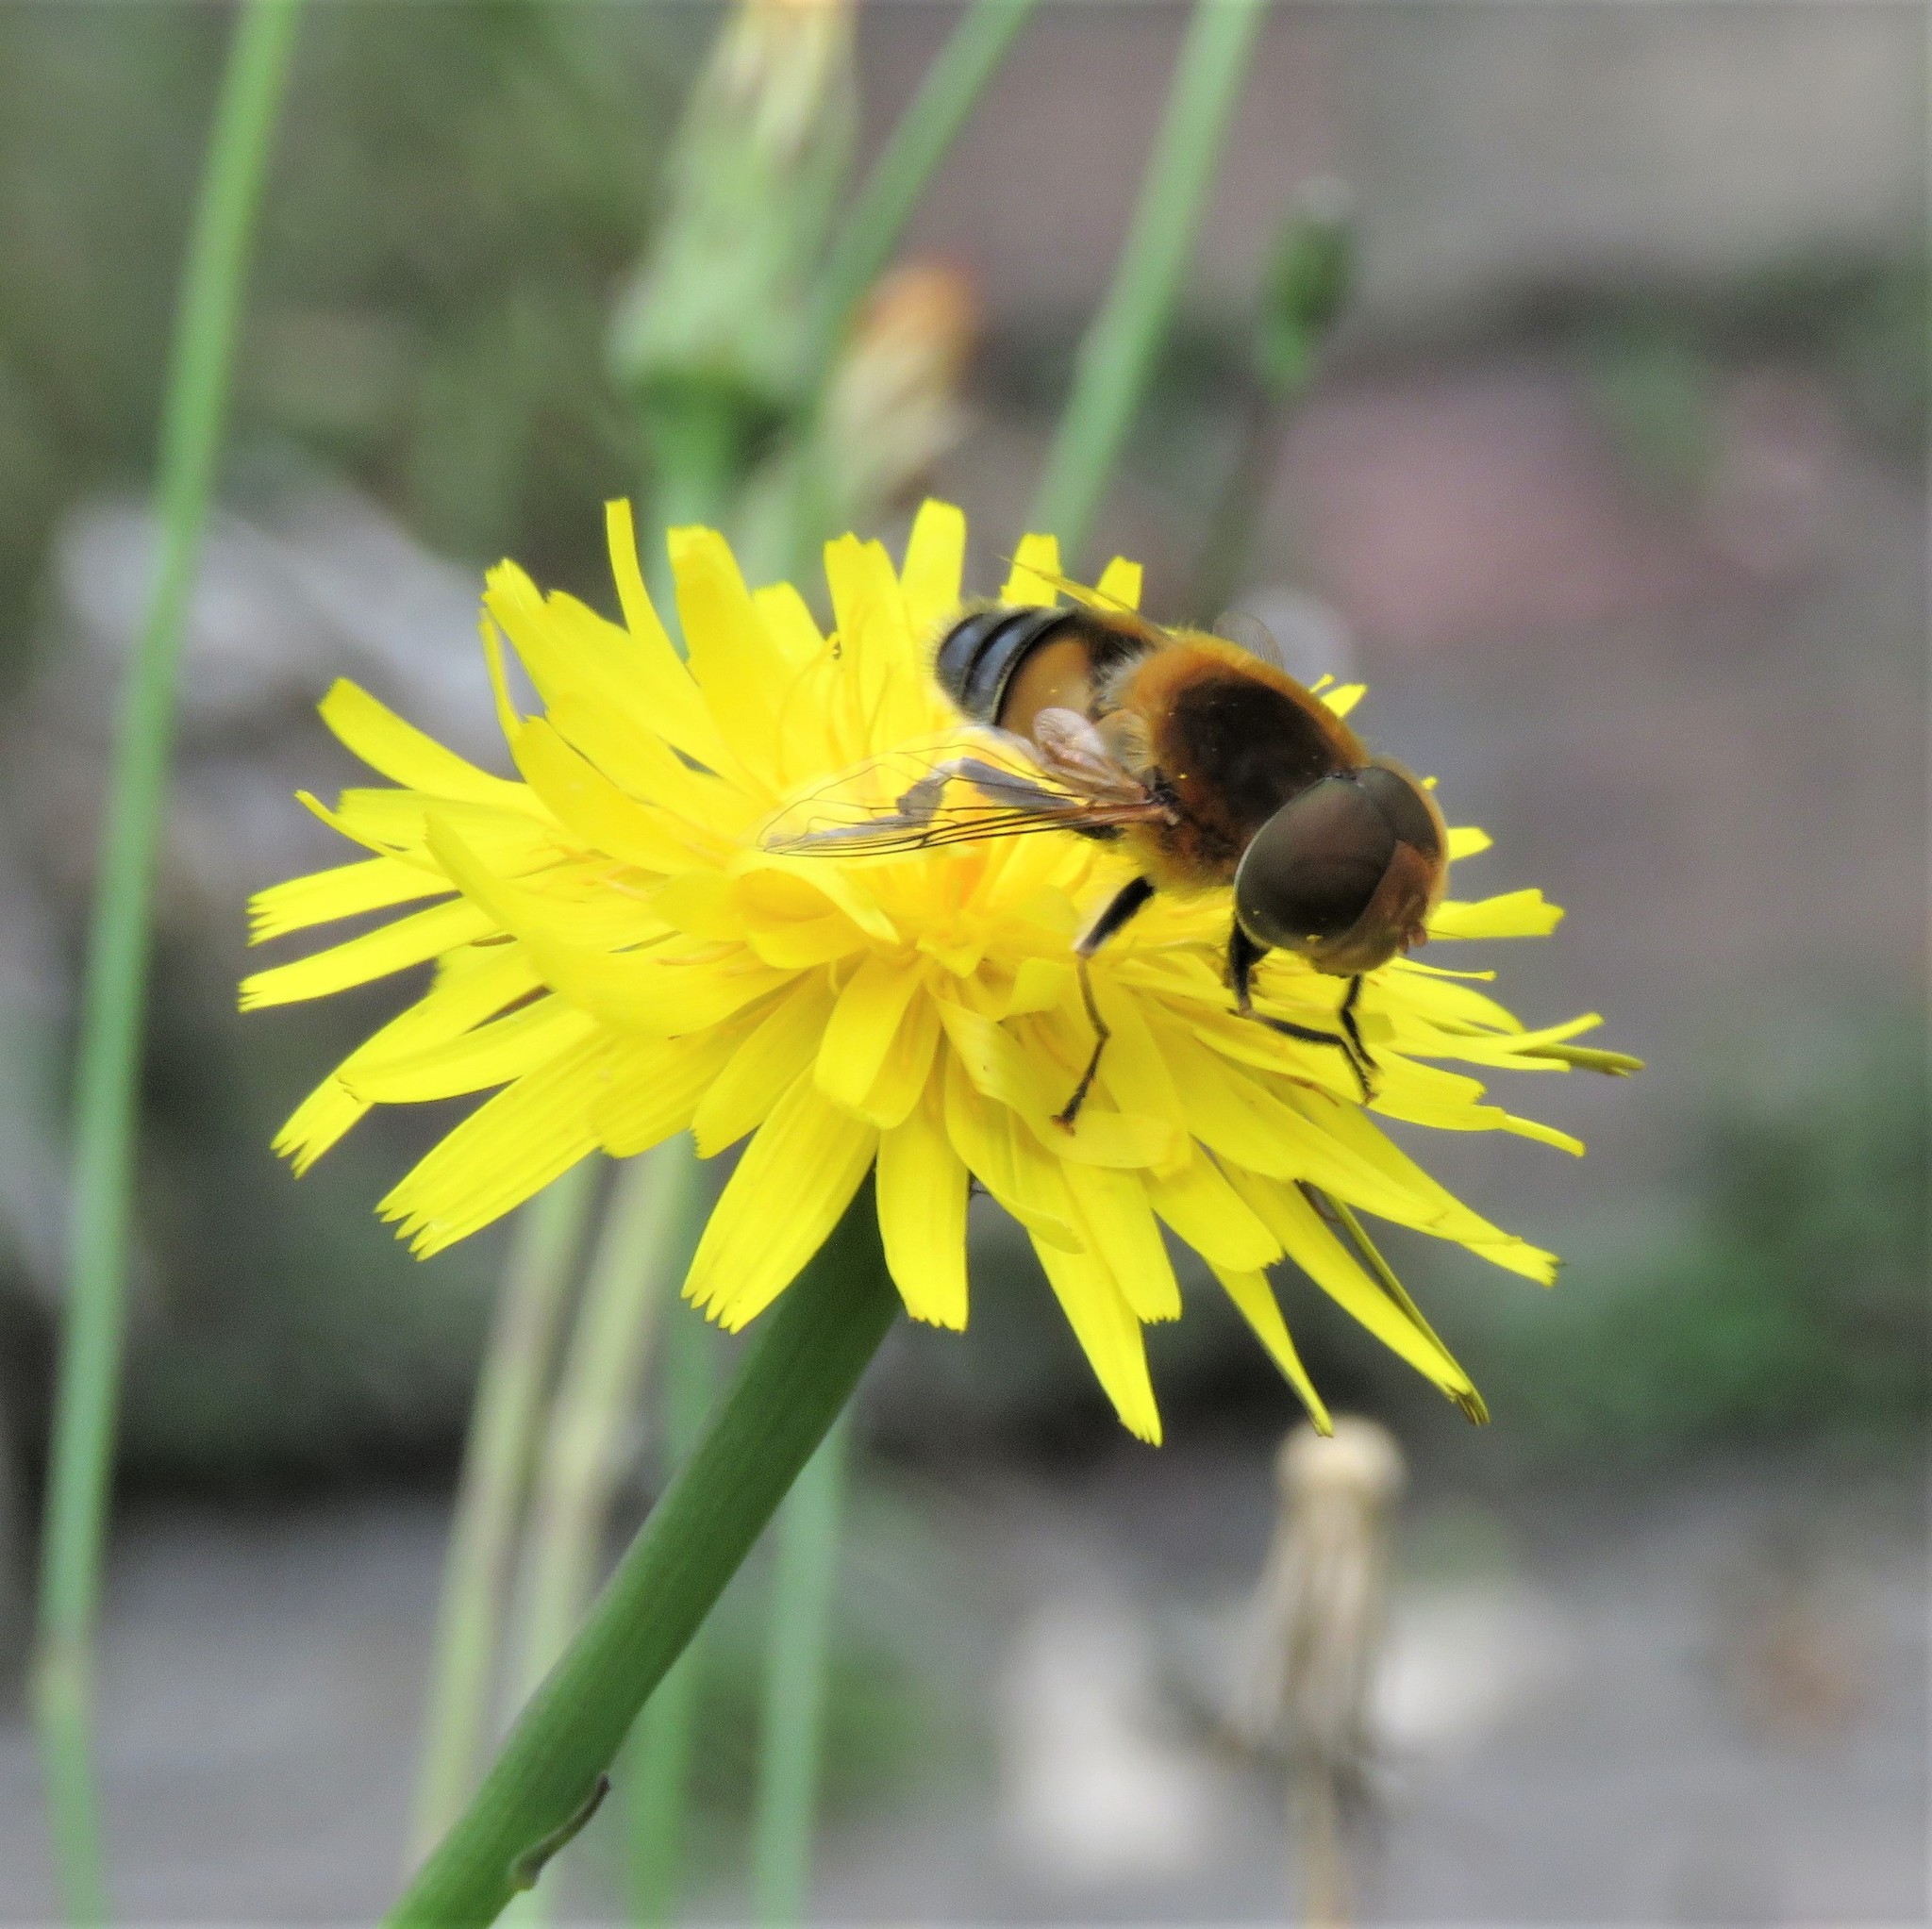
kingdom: Plantae
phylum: Tracheophyta
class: Magnoliopsida
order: Asterales
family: Asteraceae
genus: Hypochaeris
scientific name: Hypochaeris radicata
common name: Flatweed
